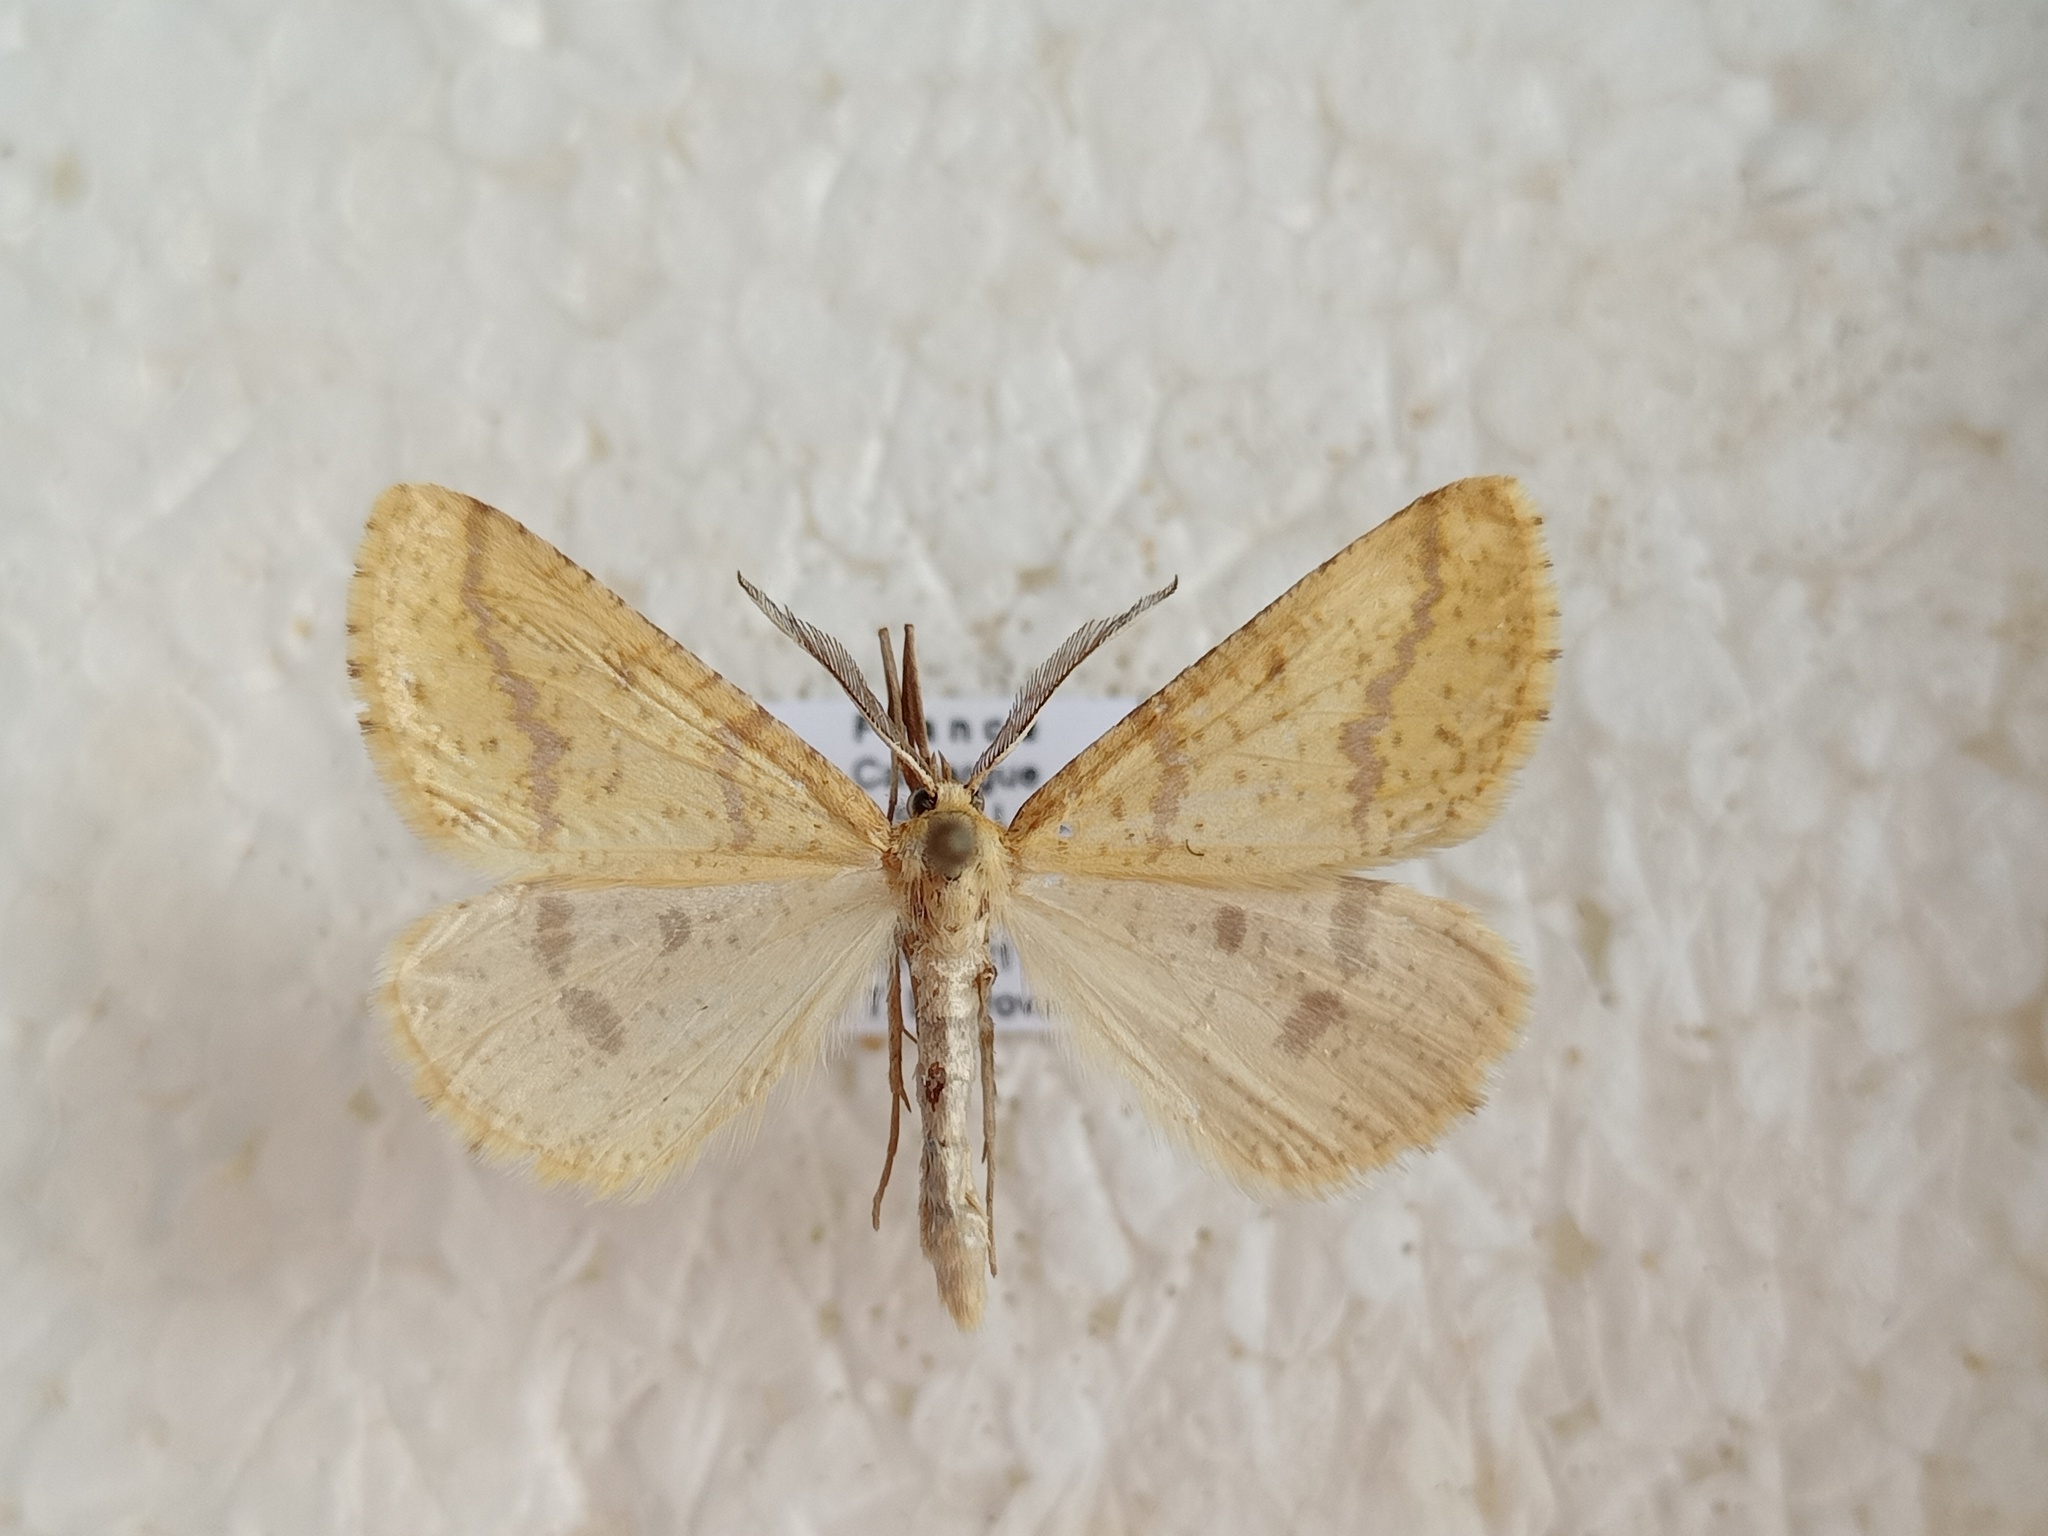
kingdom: Animalia
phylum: Arthropoda
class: Insecta
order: Lepidoptera
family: Geometridae
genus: Aspitates
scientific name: Aspitates ochrearia
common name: Yellow belle
